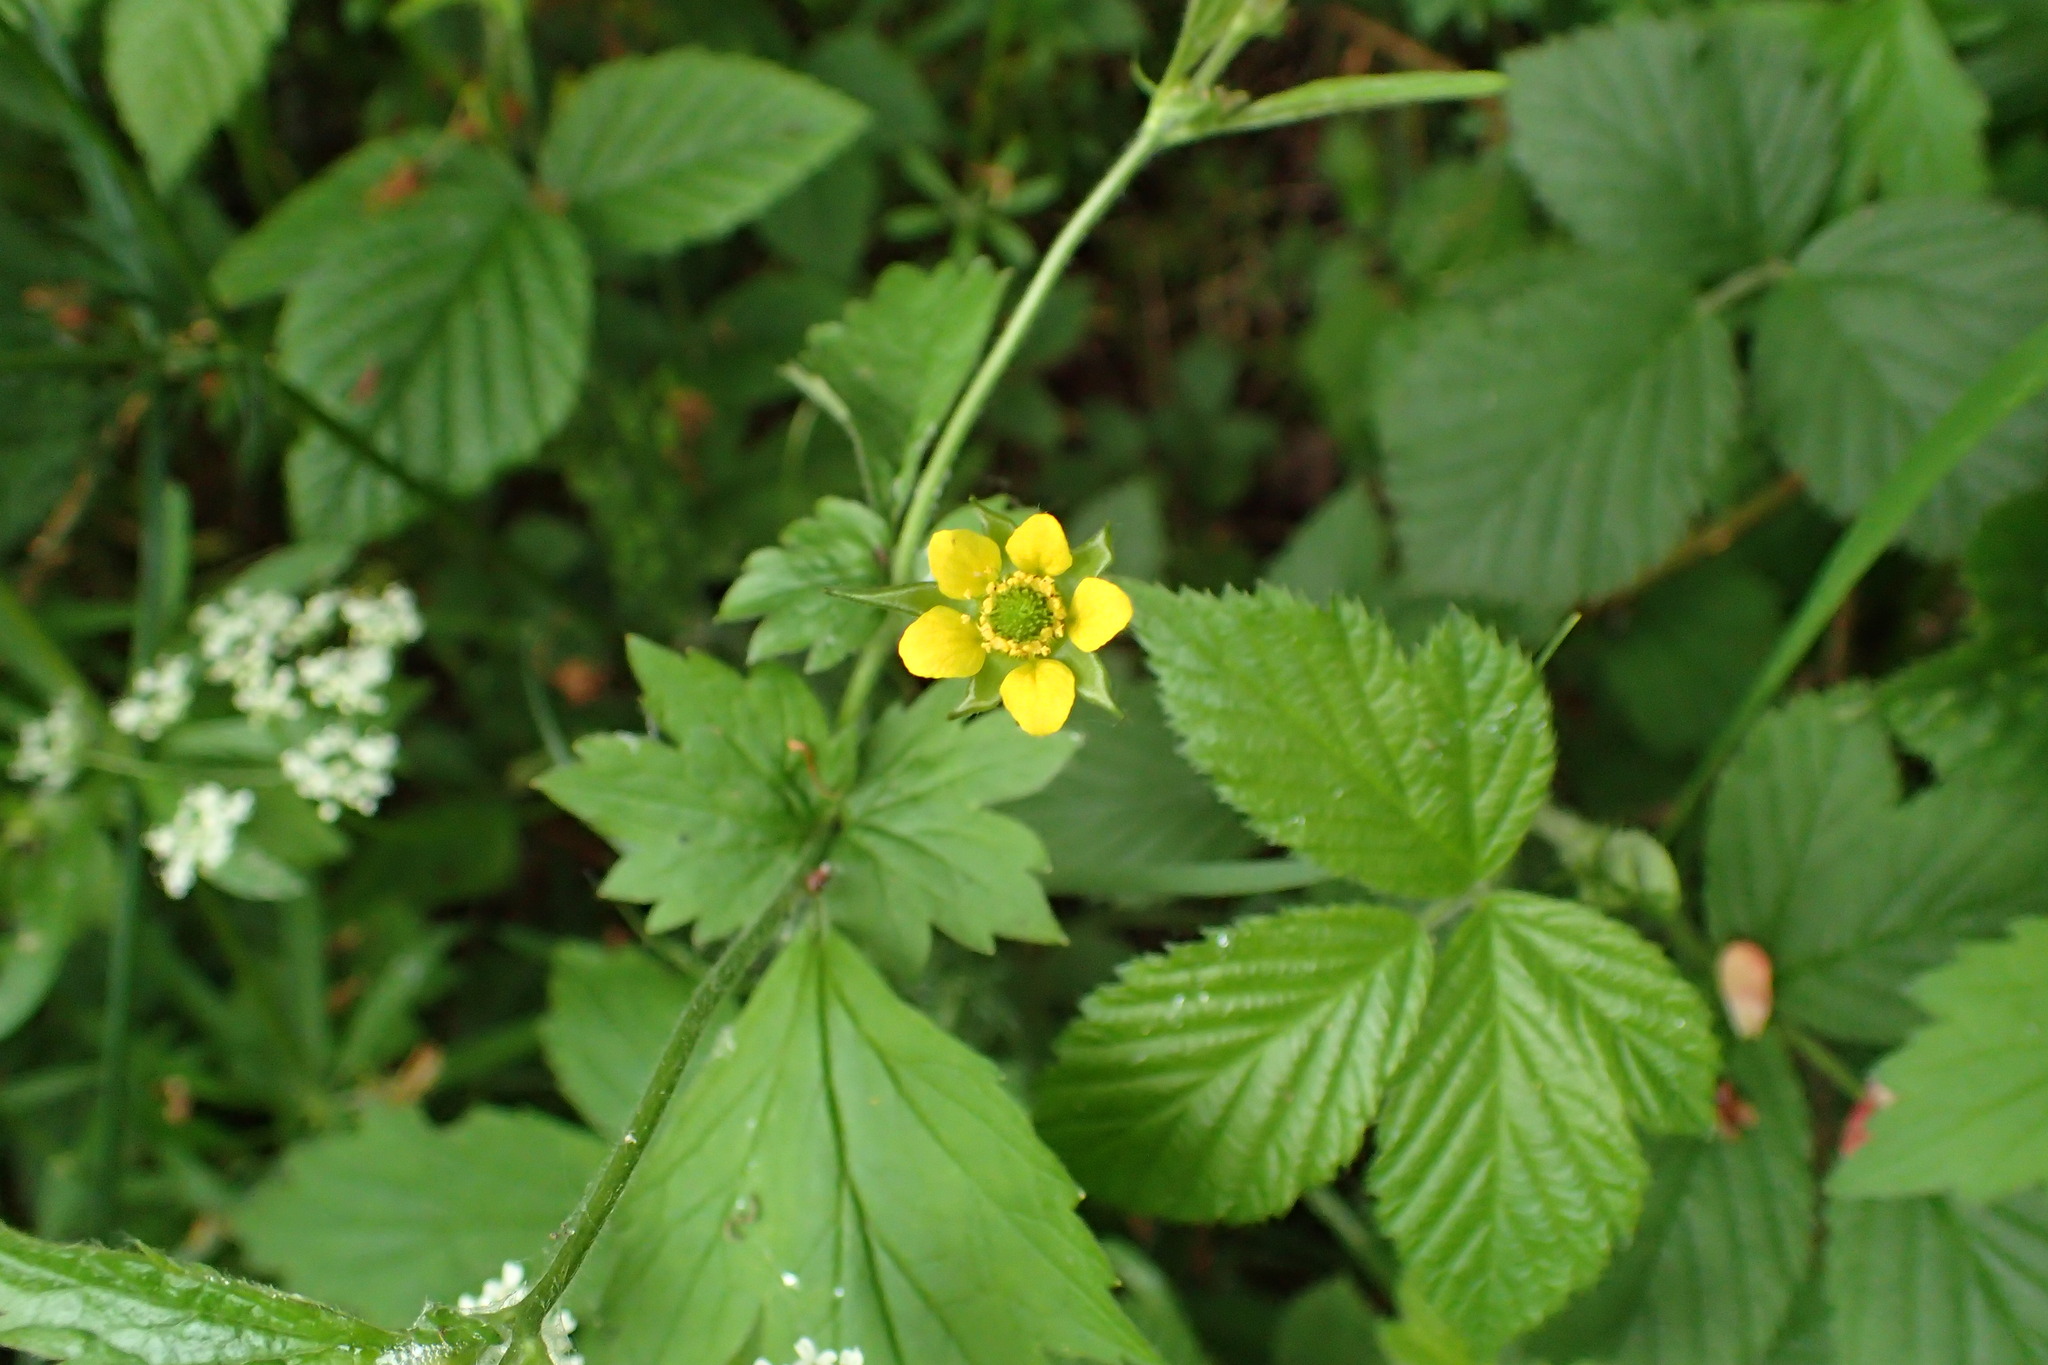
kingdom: Plantae
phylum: Tracheophyta
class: Magnoliopsida
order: Rosales
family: Rosaceae
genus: Geum
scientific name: Geum urbanum
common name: Wood avens
